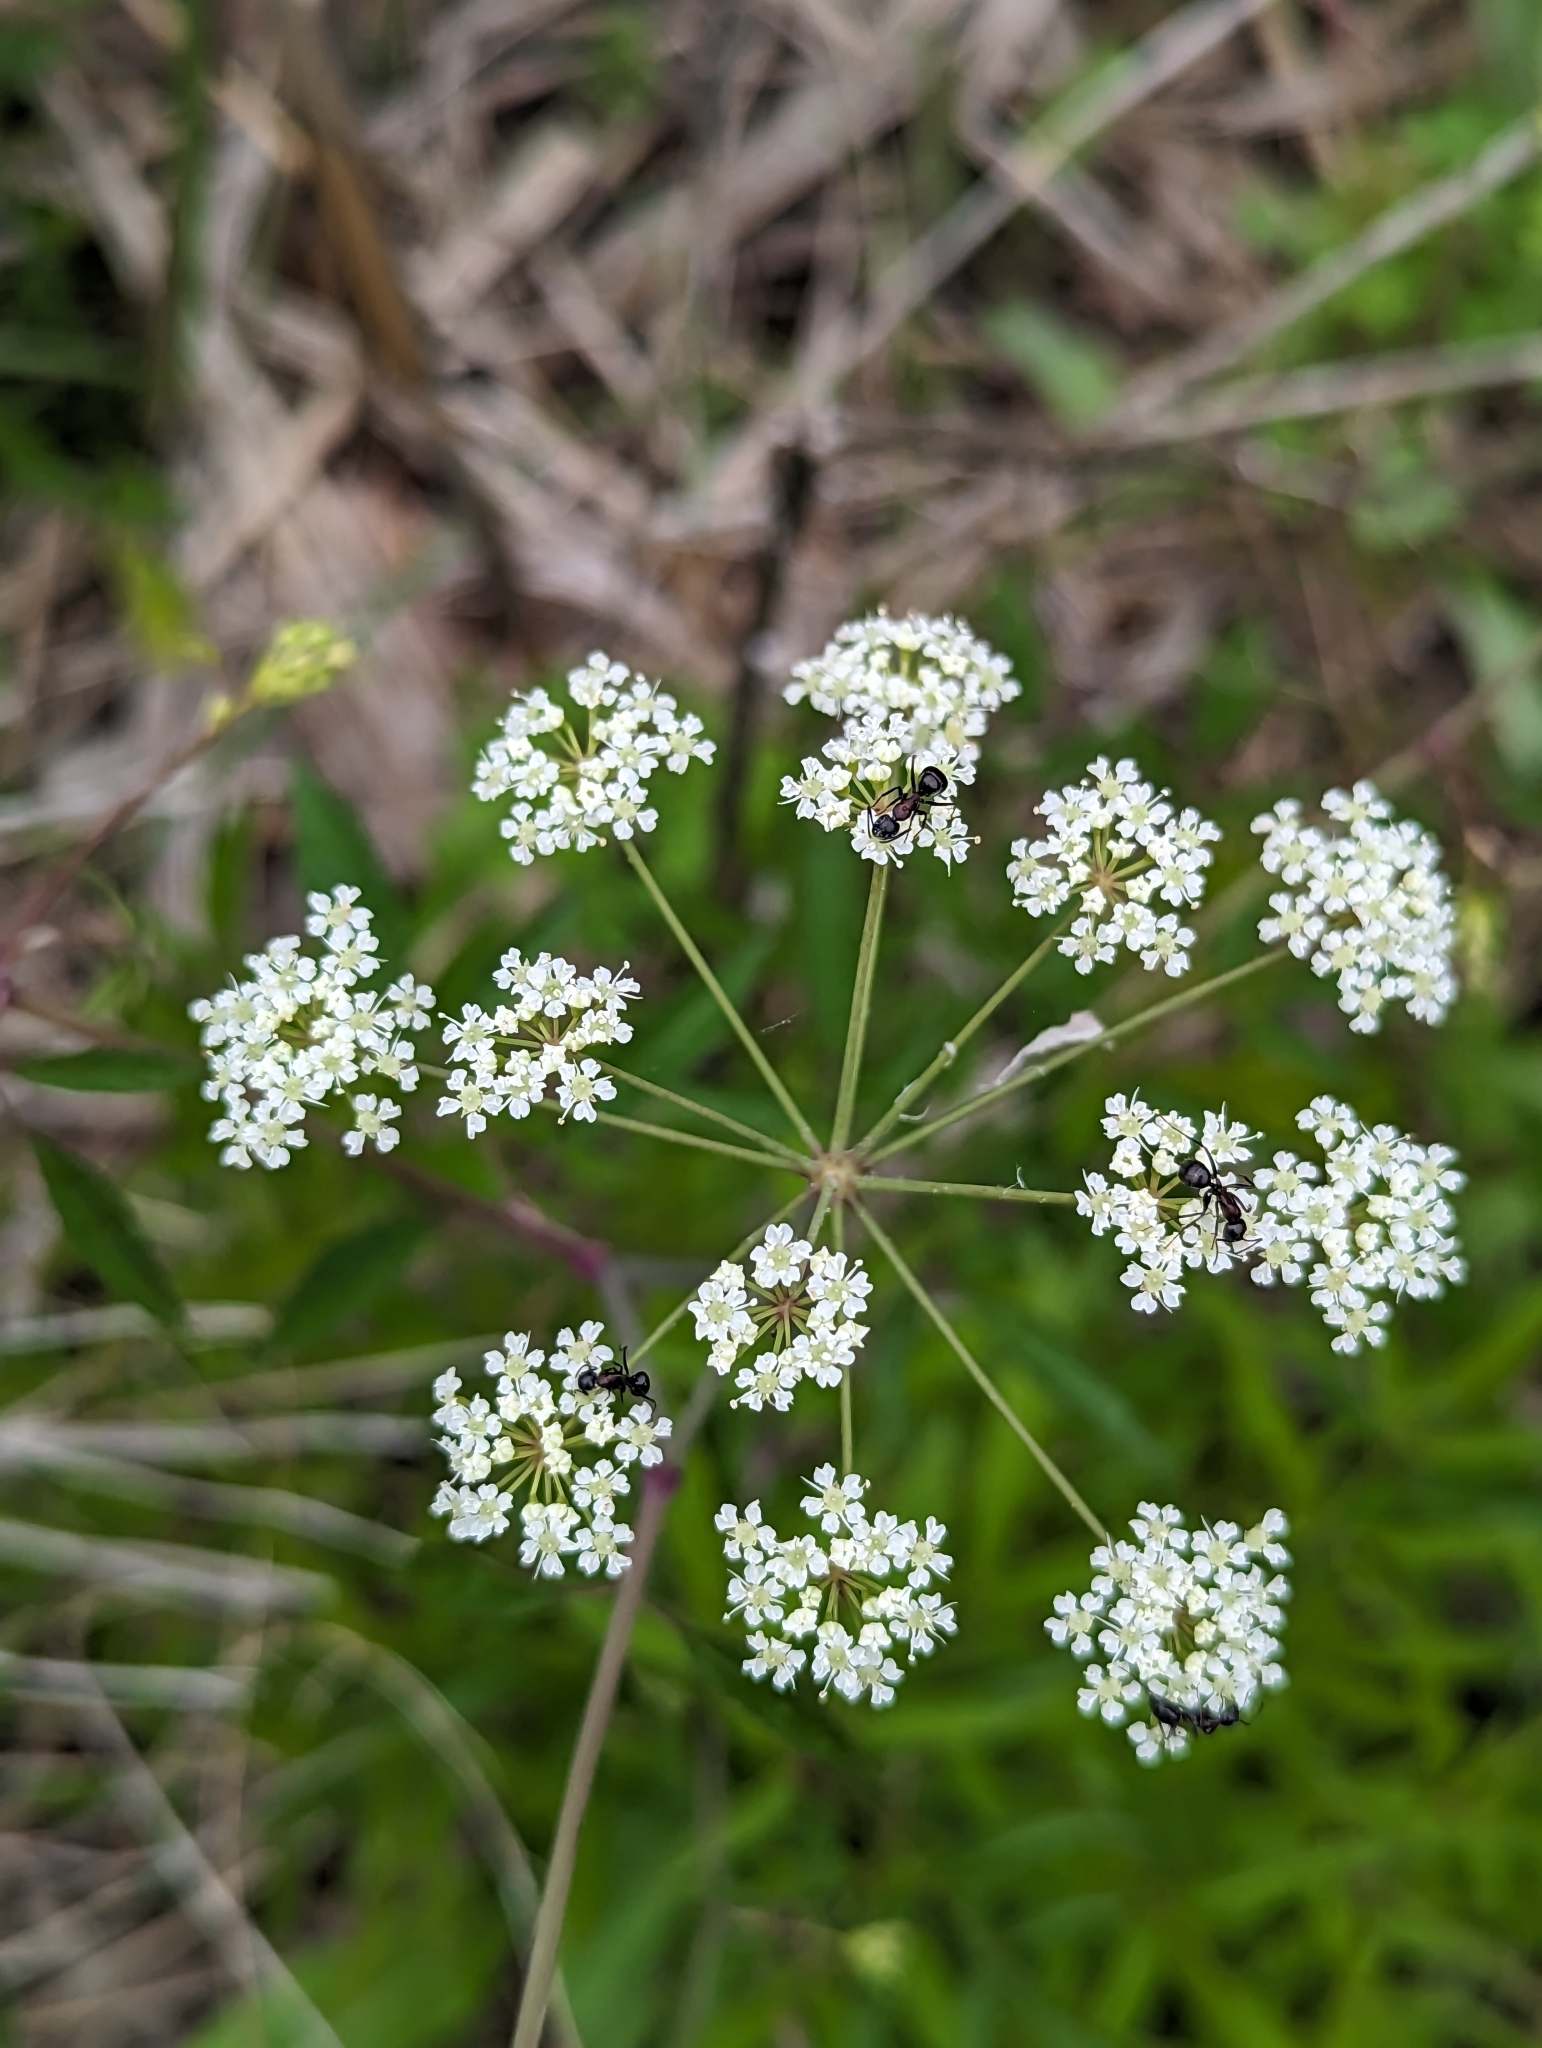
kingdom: Plantae
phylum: Tracheophyta
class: Magnoliopsida
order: Apiales
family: Apiaceae
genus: Cicuta
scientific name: Cicuta maculata
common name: Spotted cowbane
